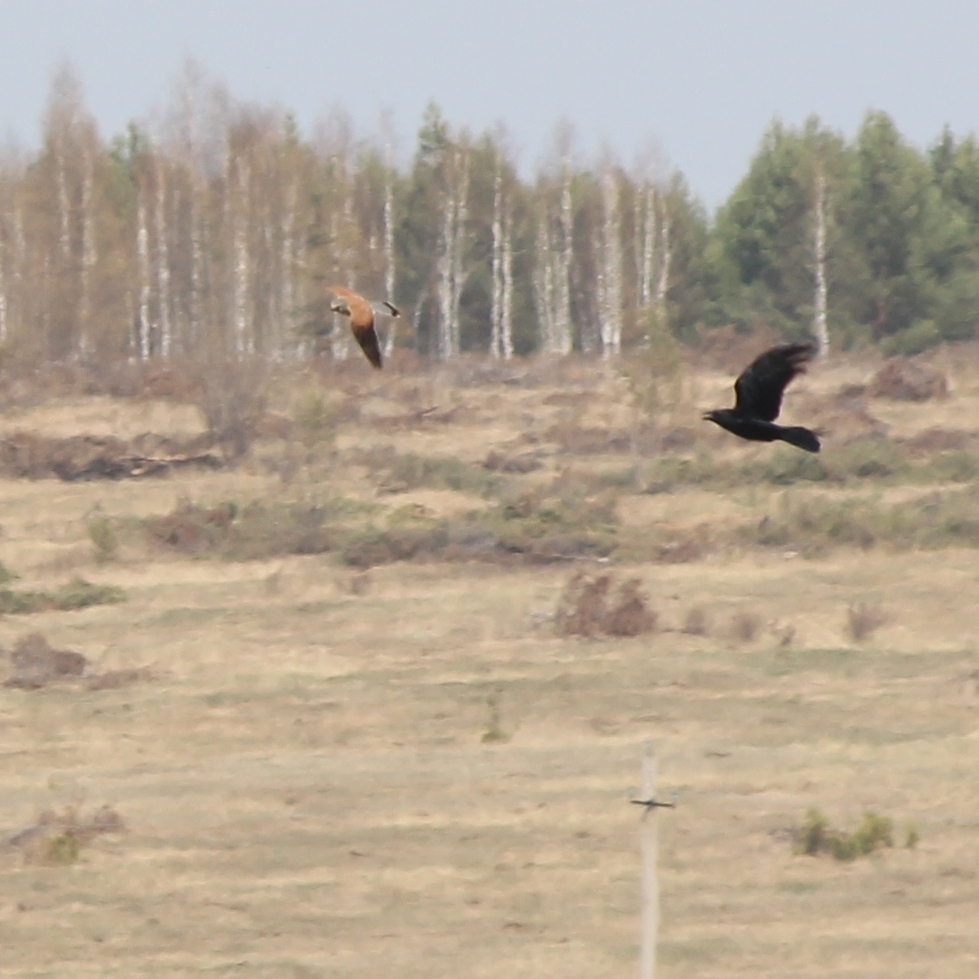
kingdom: Animalia
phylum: Chordata
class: Aves
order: Falconiformes
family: Falconidae
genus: Falco
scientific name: Falco tinnunculus
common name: Common kestrel
